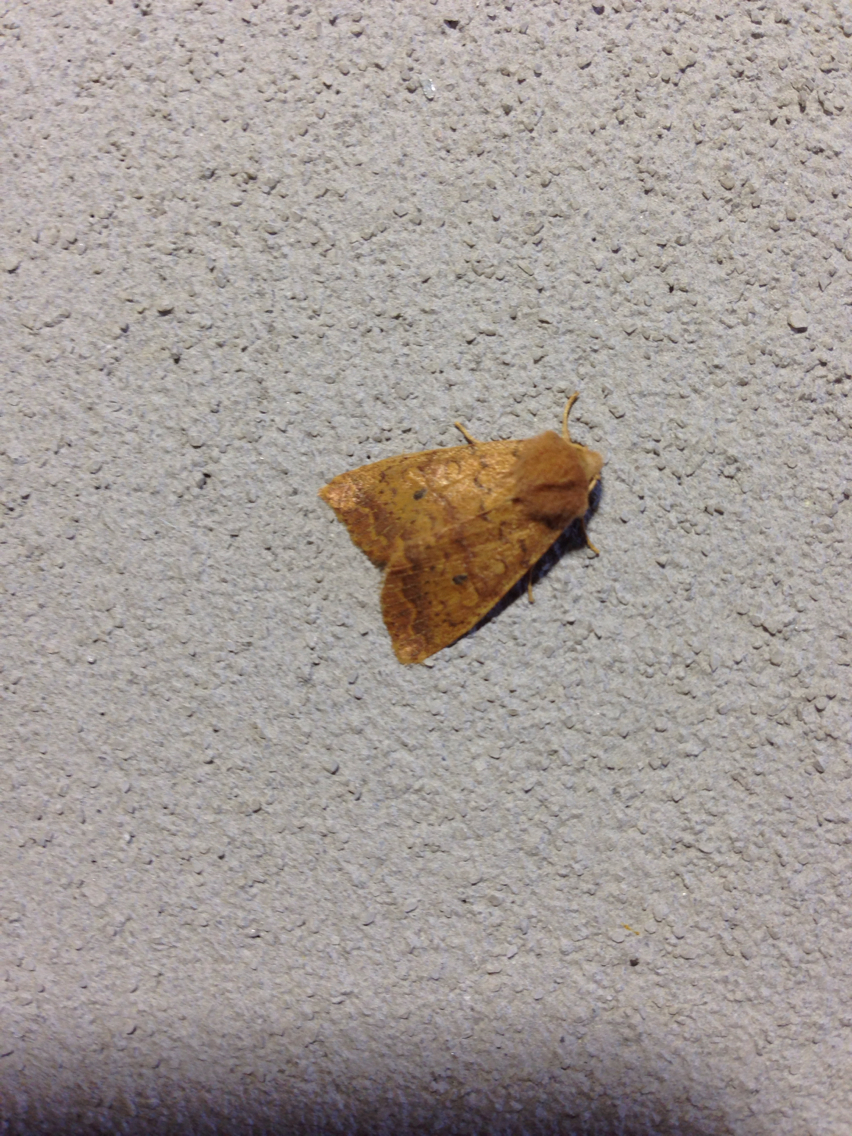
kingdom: Animalia
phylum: Arthropoda
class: Insecta
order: Lepidoptera
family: Noctuidae
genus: Agrochola
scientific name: Agrochola bicolorago
